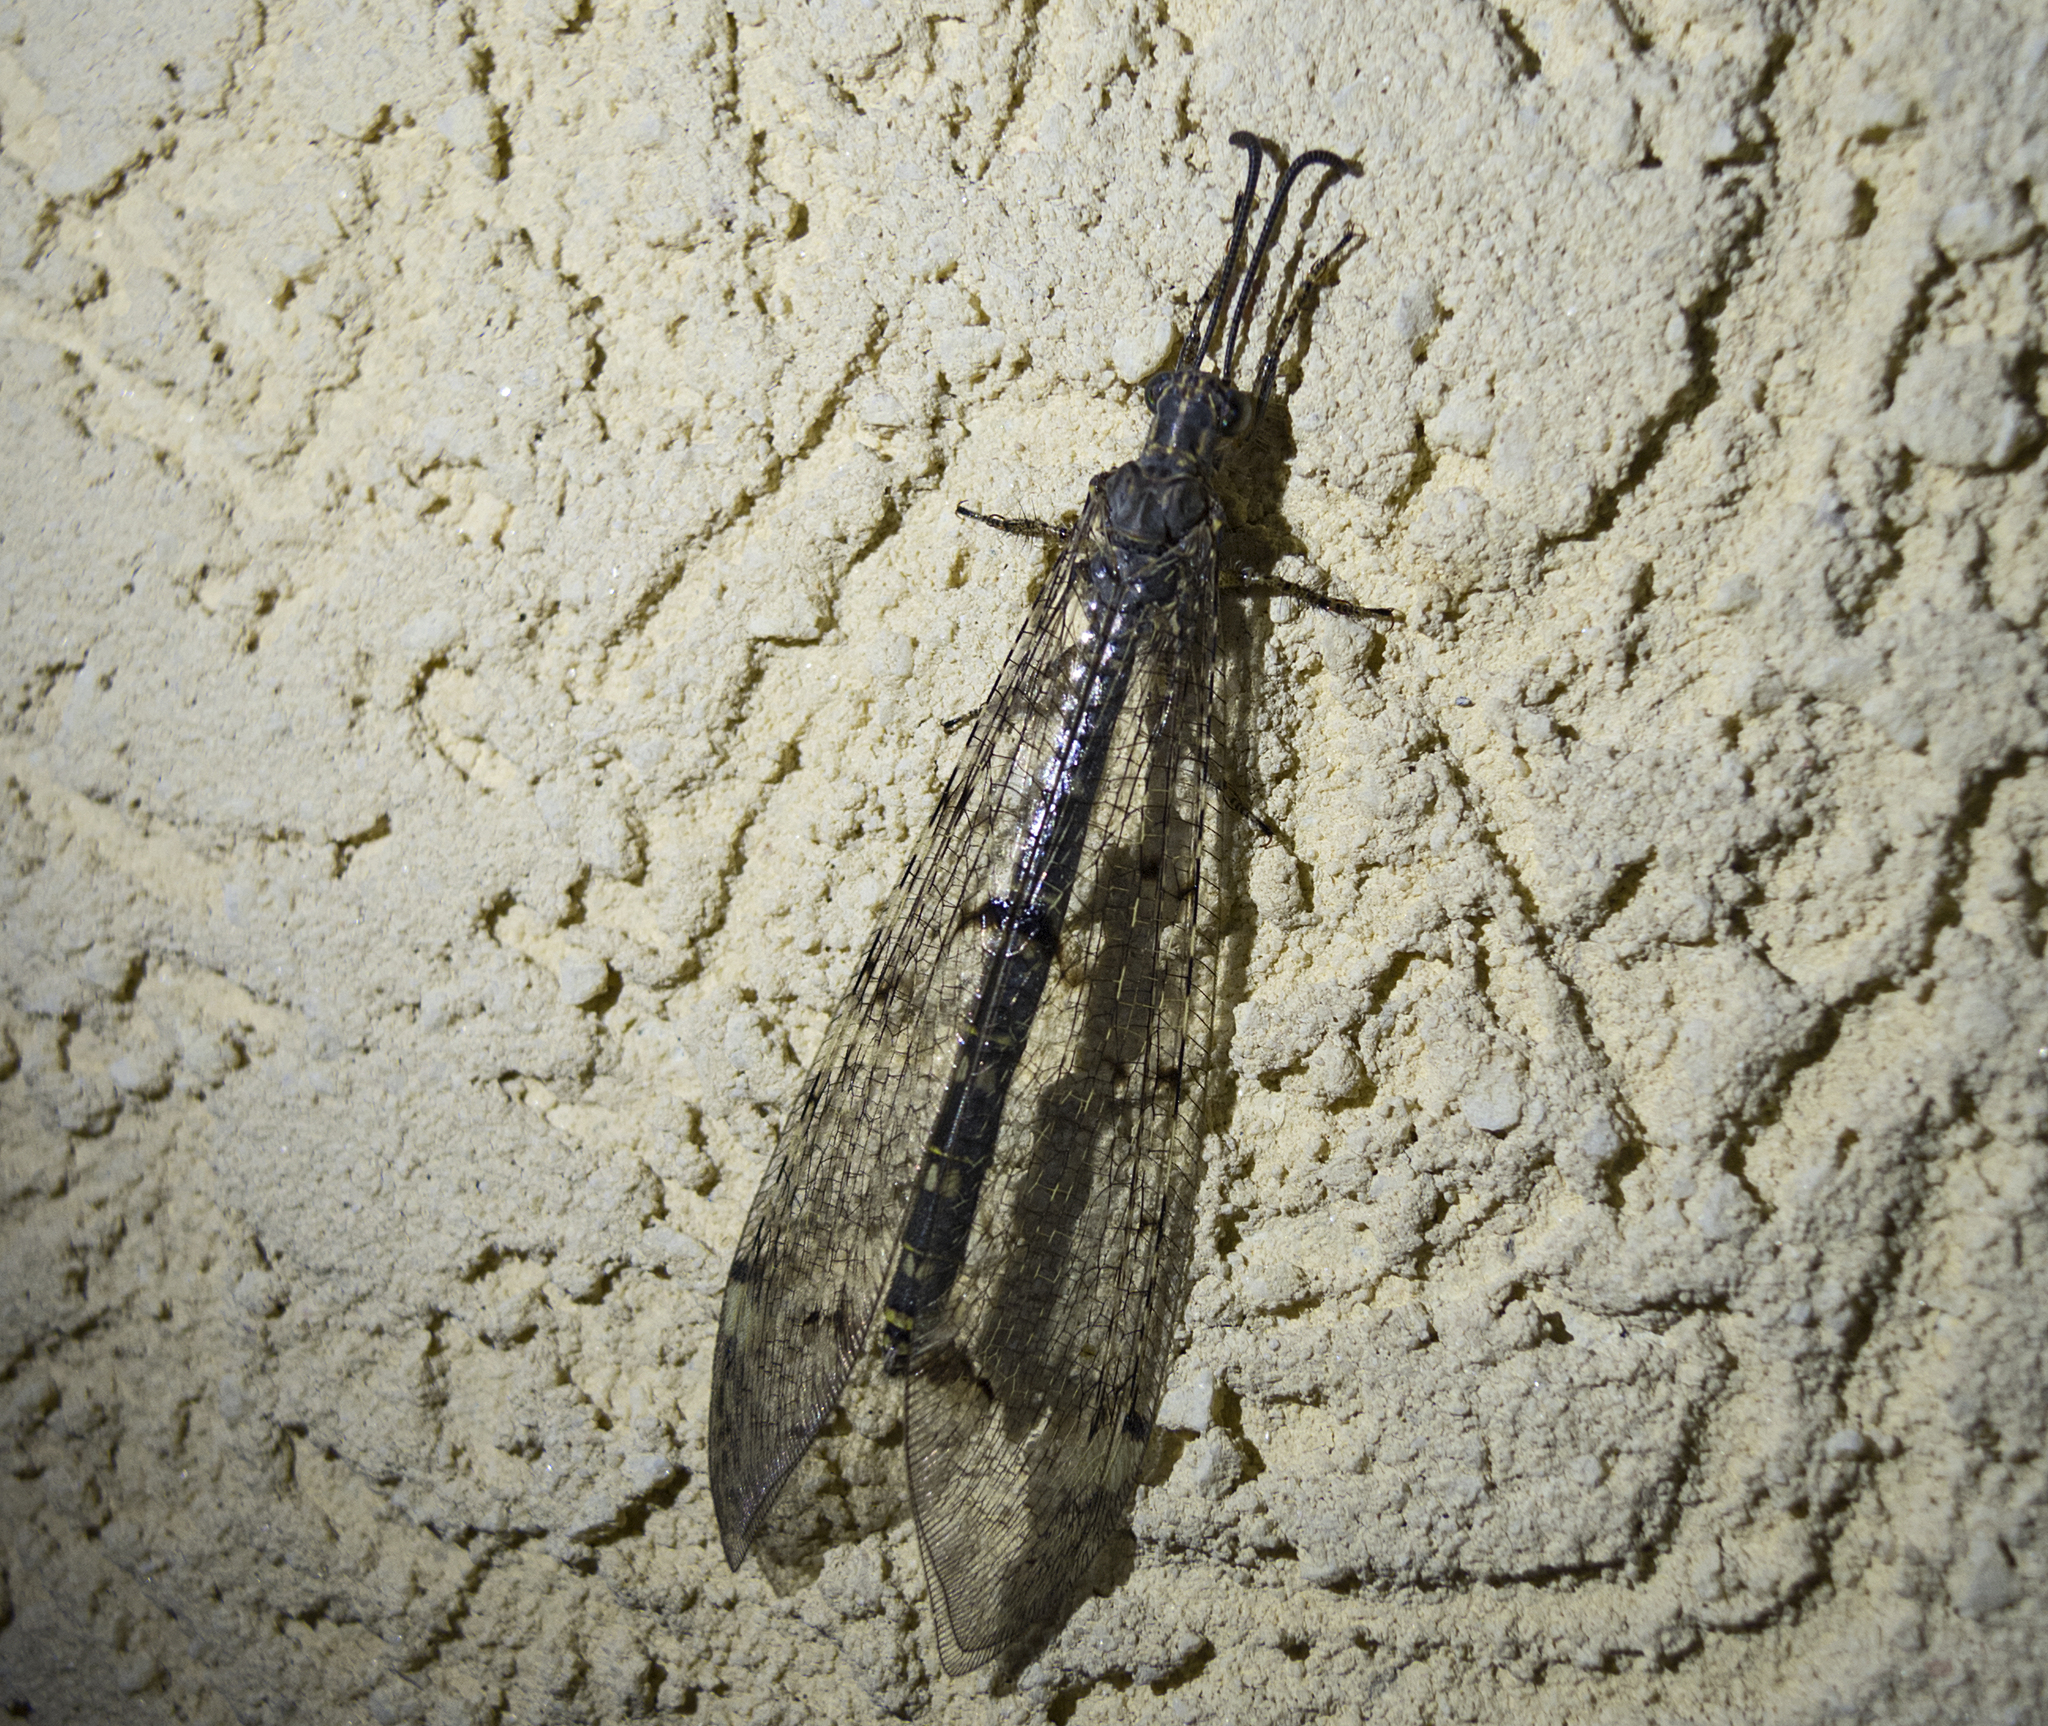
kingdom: Animalia
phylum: Arthropoda
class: Insecta
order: Neuroptera
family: Myrmeleontidae
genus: Distoleon
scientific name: Distoleon tetragrammicus
